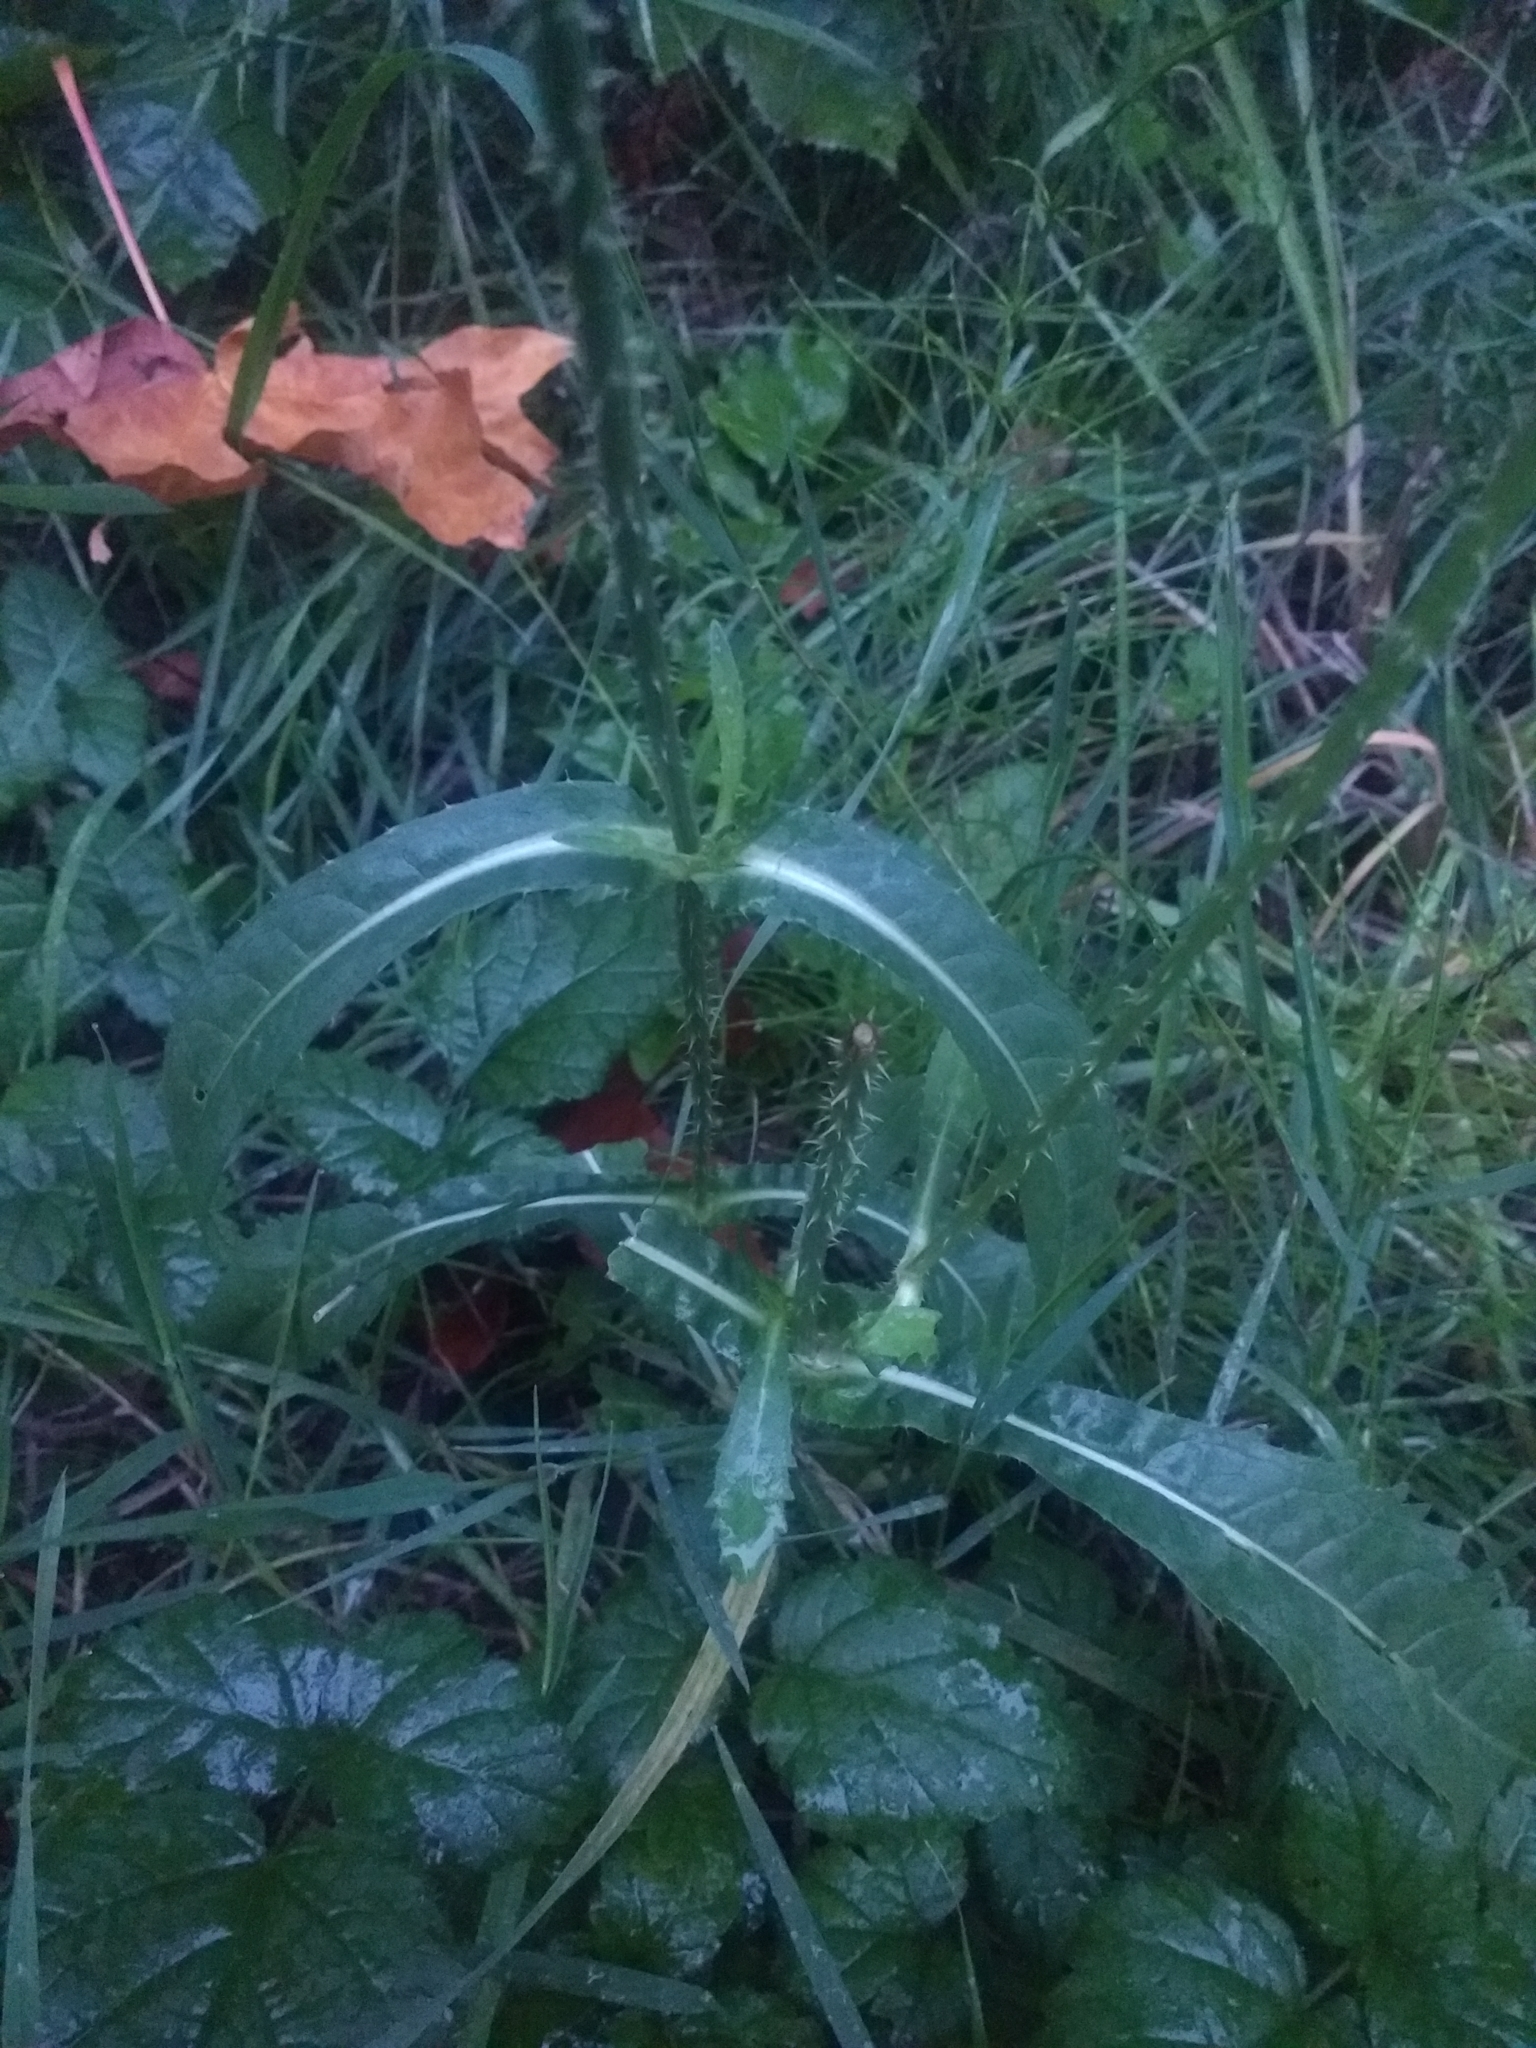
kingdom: Plantae
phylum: Tracheophyta
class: Magnoliopsida
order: Dipsacales
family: Caprifoliaceae
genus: Dipsacus
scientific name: Dipsacus fullonum
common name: Teasel
